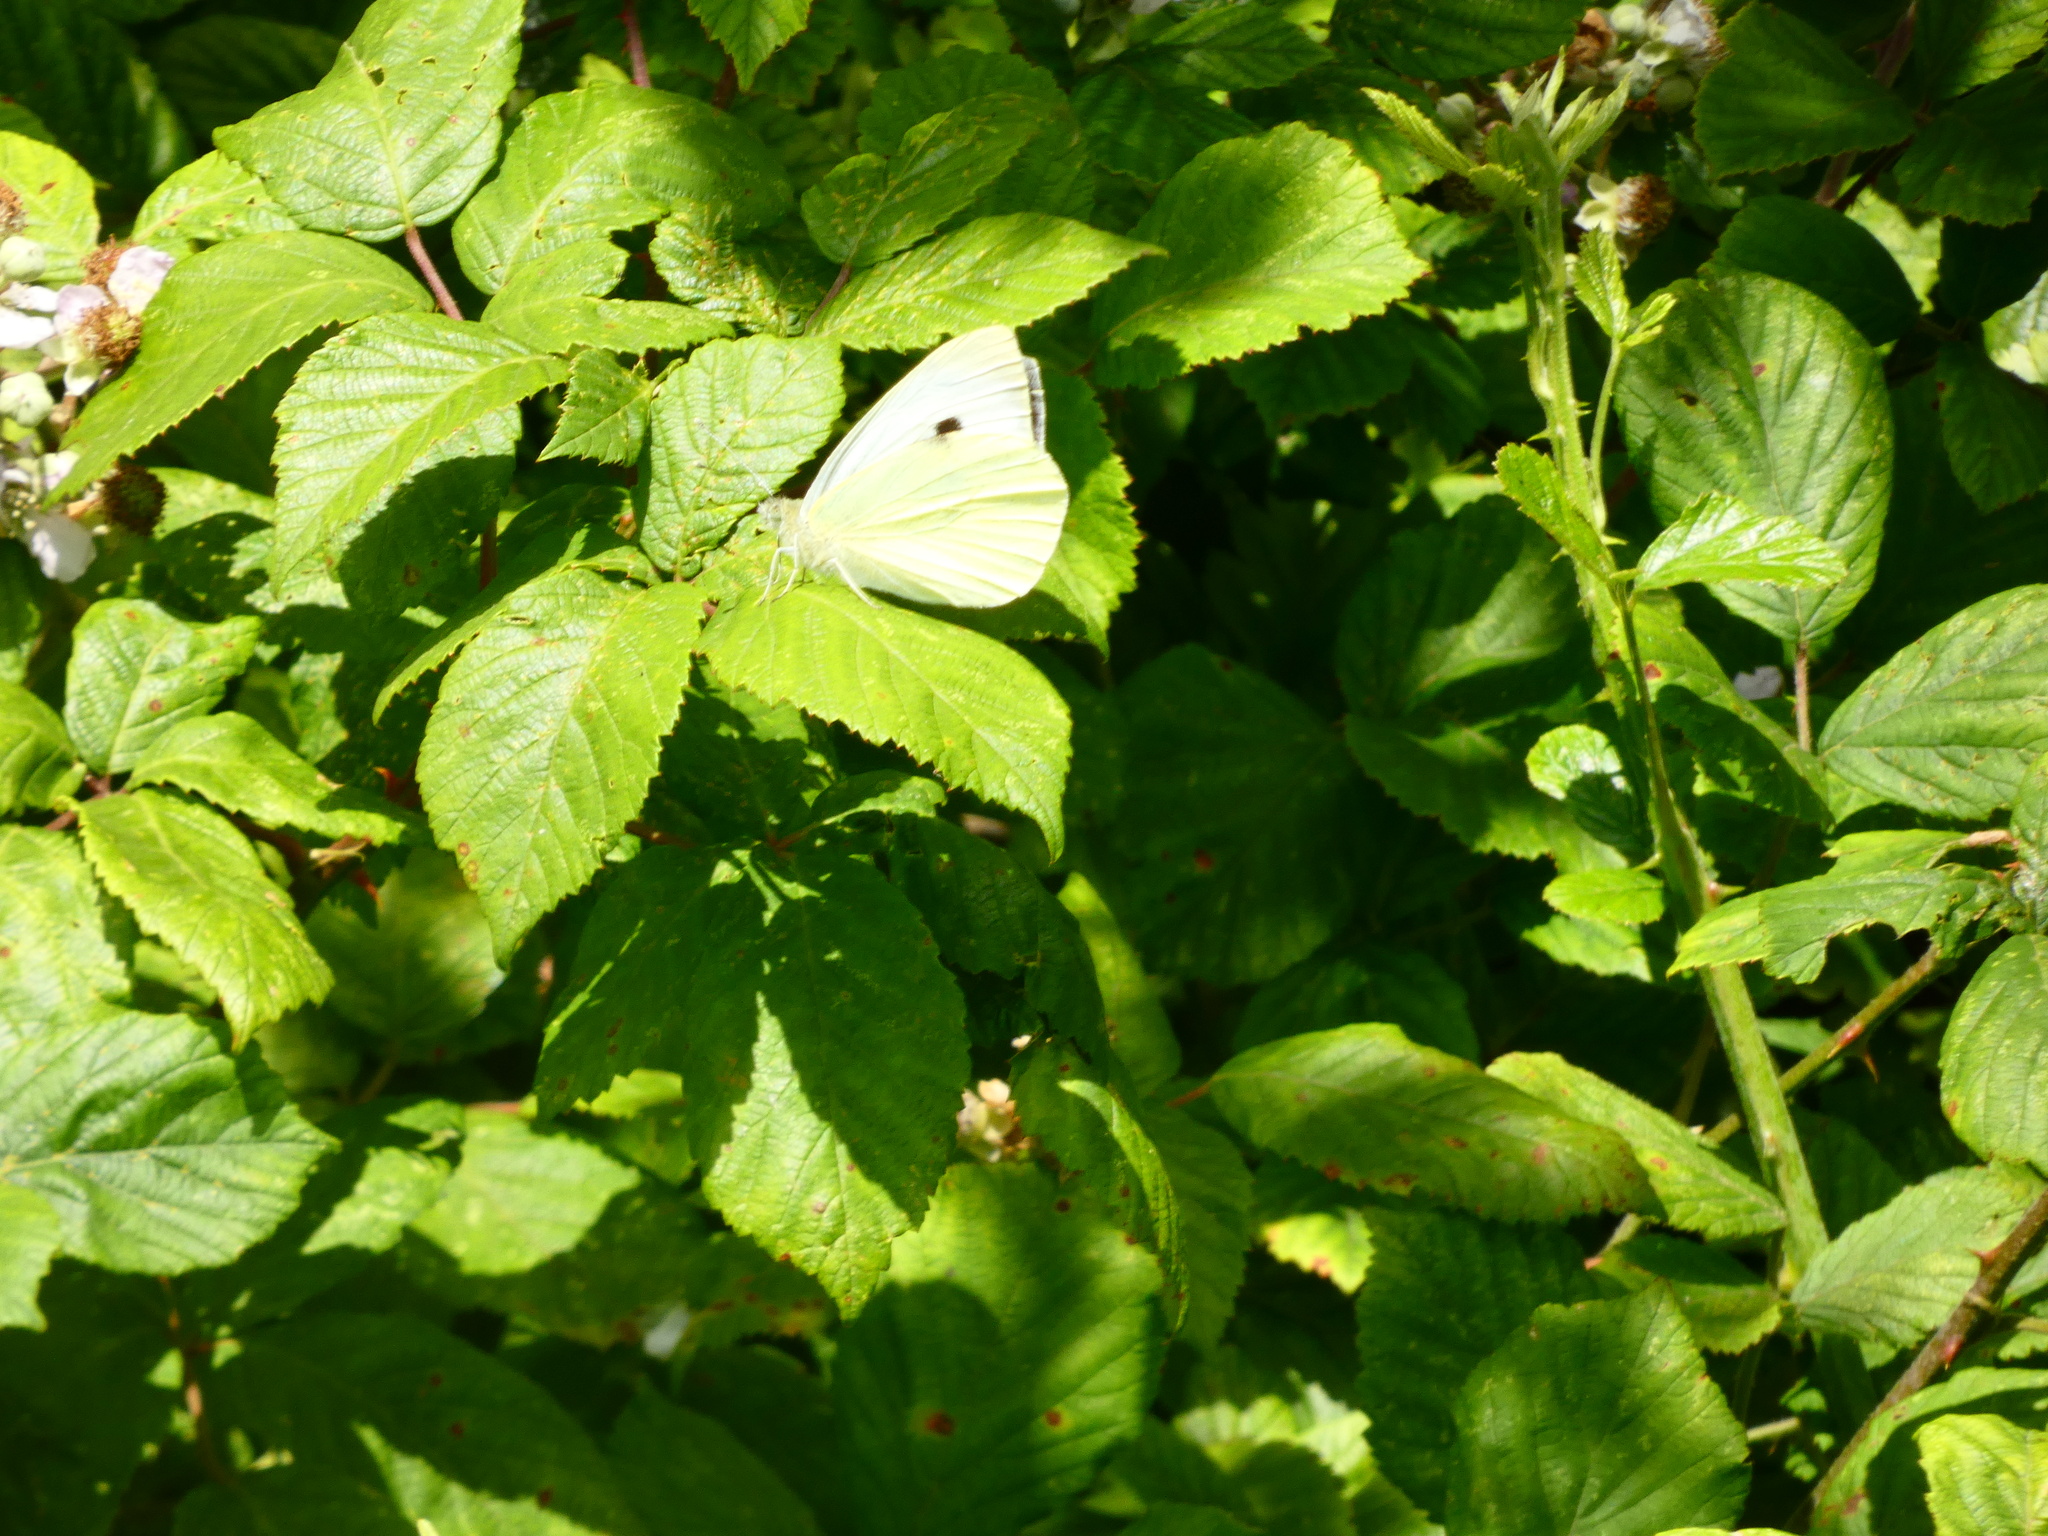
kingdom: Animalia
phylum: Arthropoda
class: Insecta
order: Lepidoptera
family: Pieridae
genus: Pieris
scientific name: Pieris brassicae
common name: Large white
